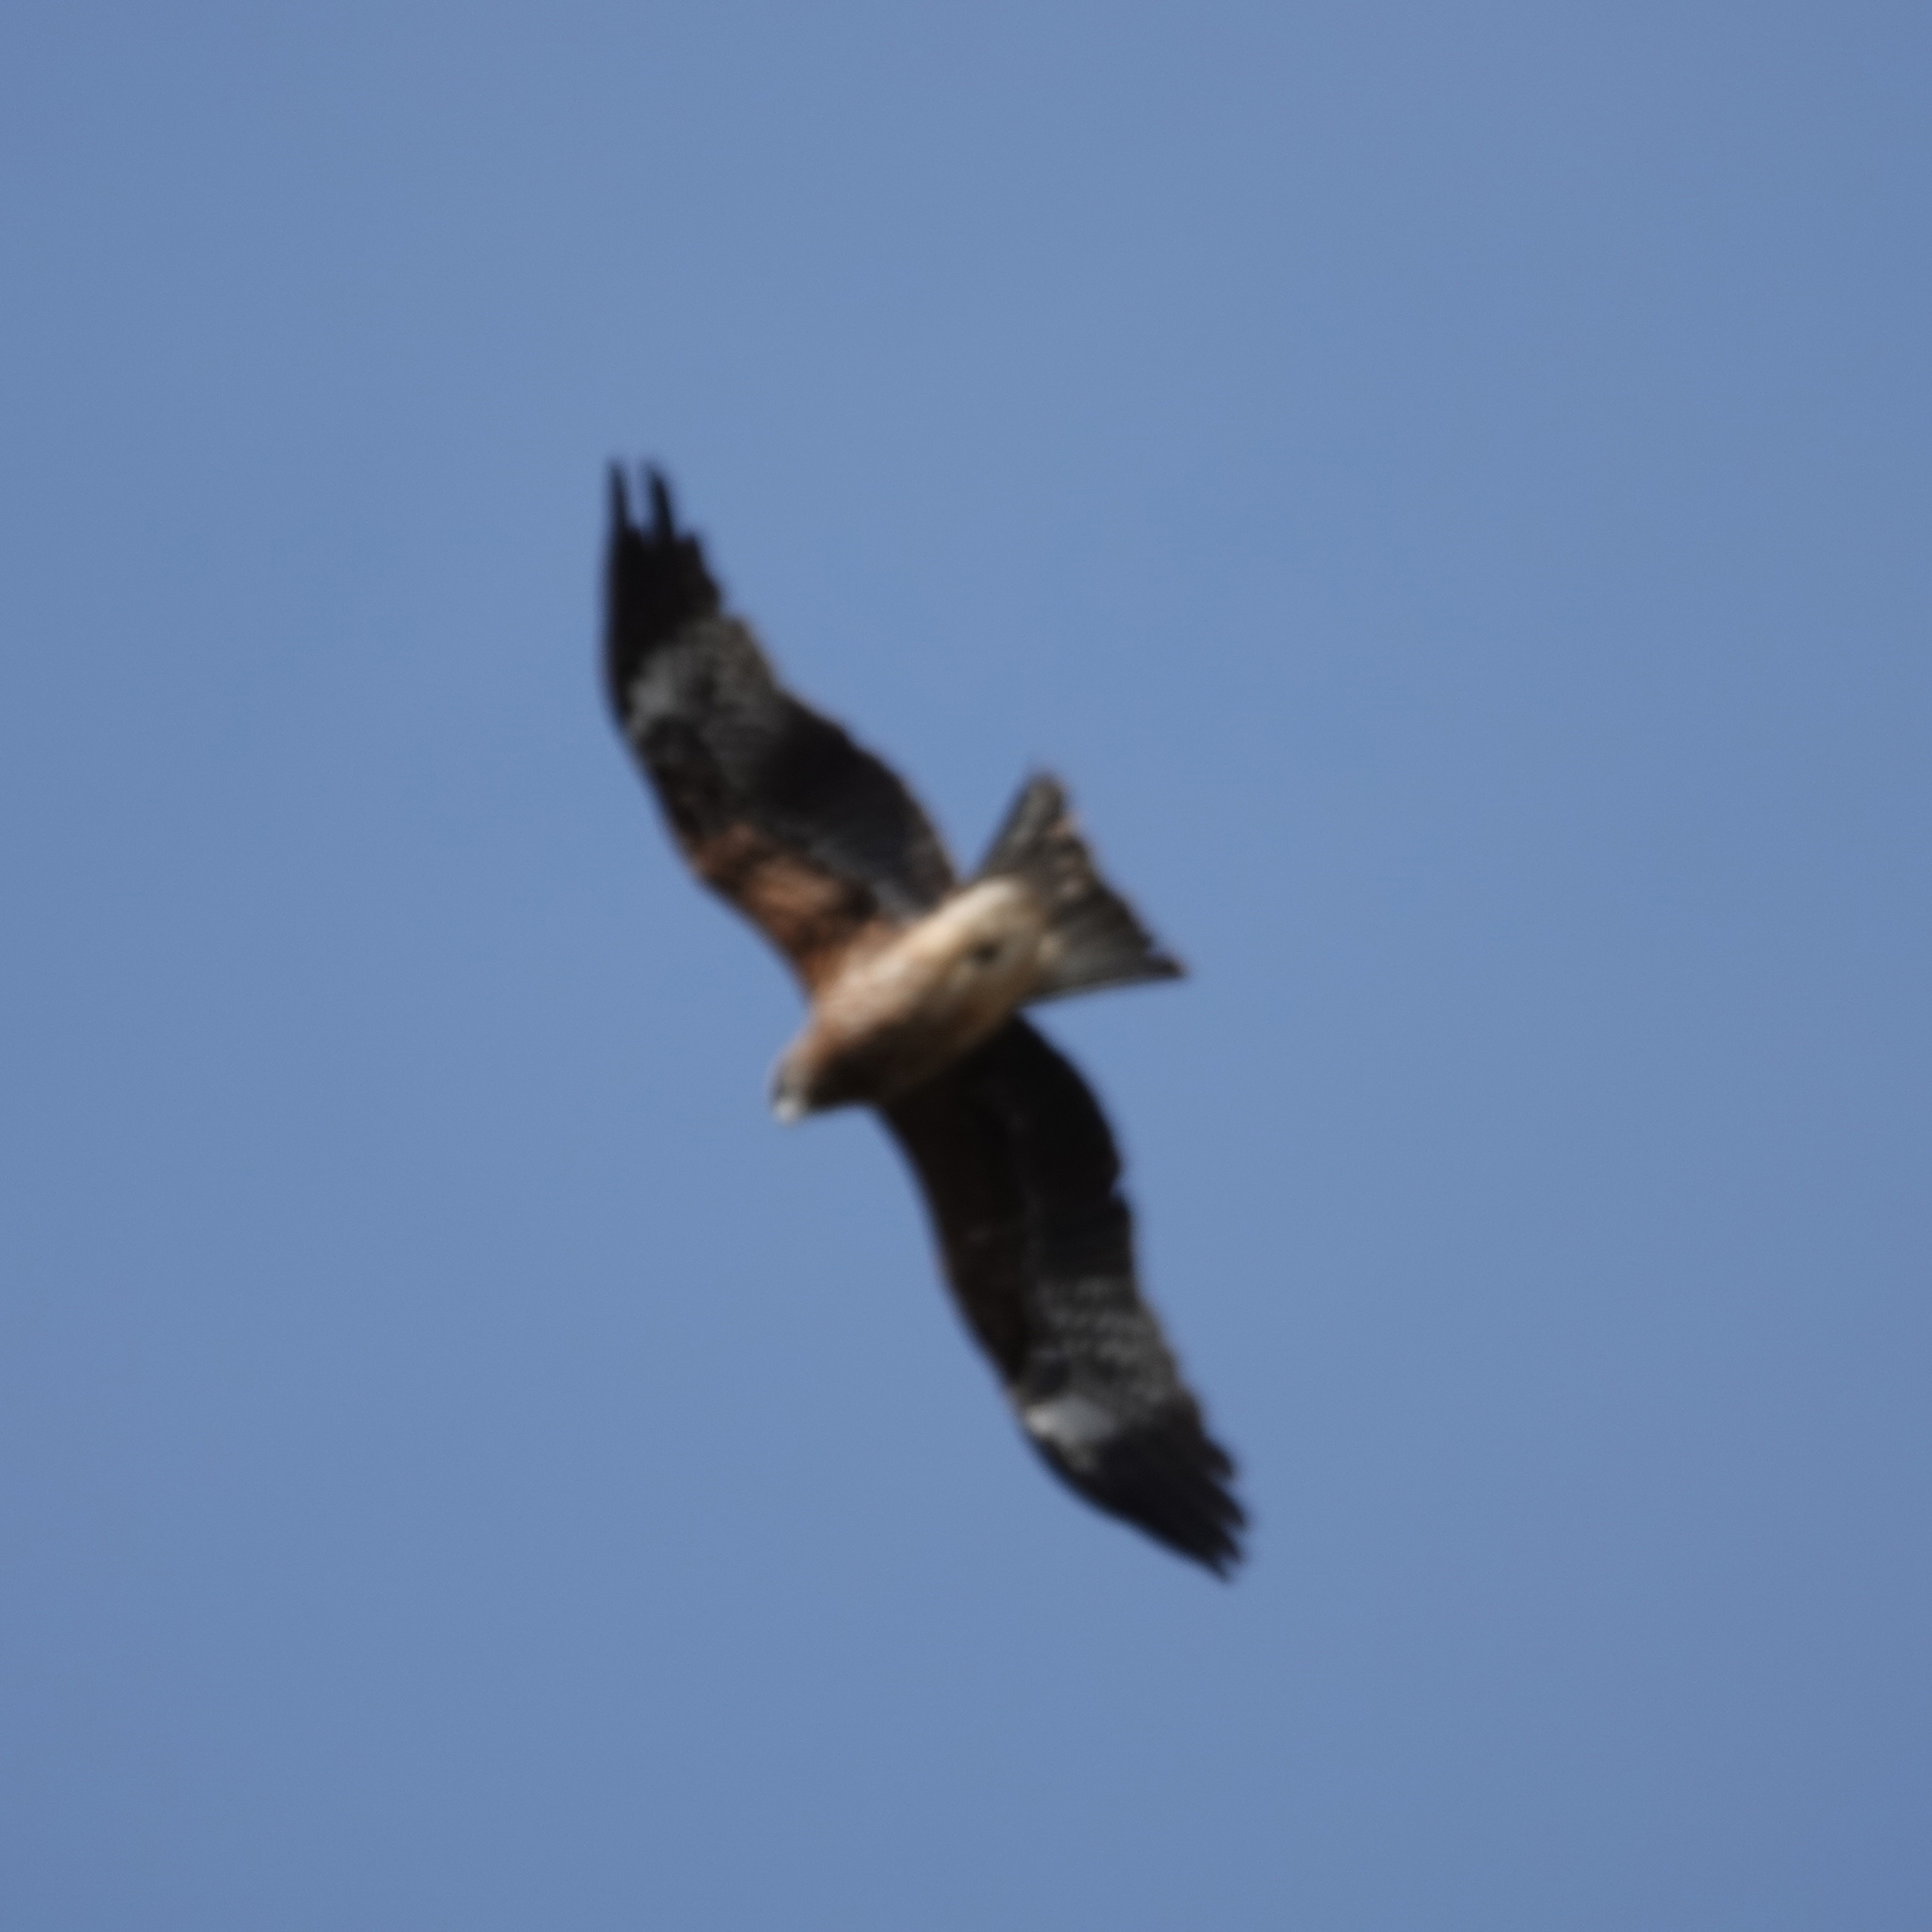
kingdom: Animalia
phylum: Chordata
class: Aves
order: Accipitriformes
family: Accipitridae
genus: Milvus
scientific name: Milvus migrans
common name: Black kite
